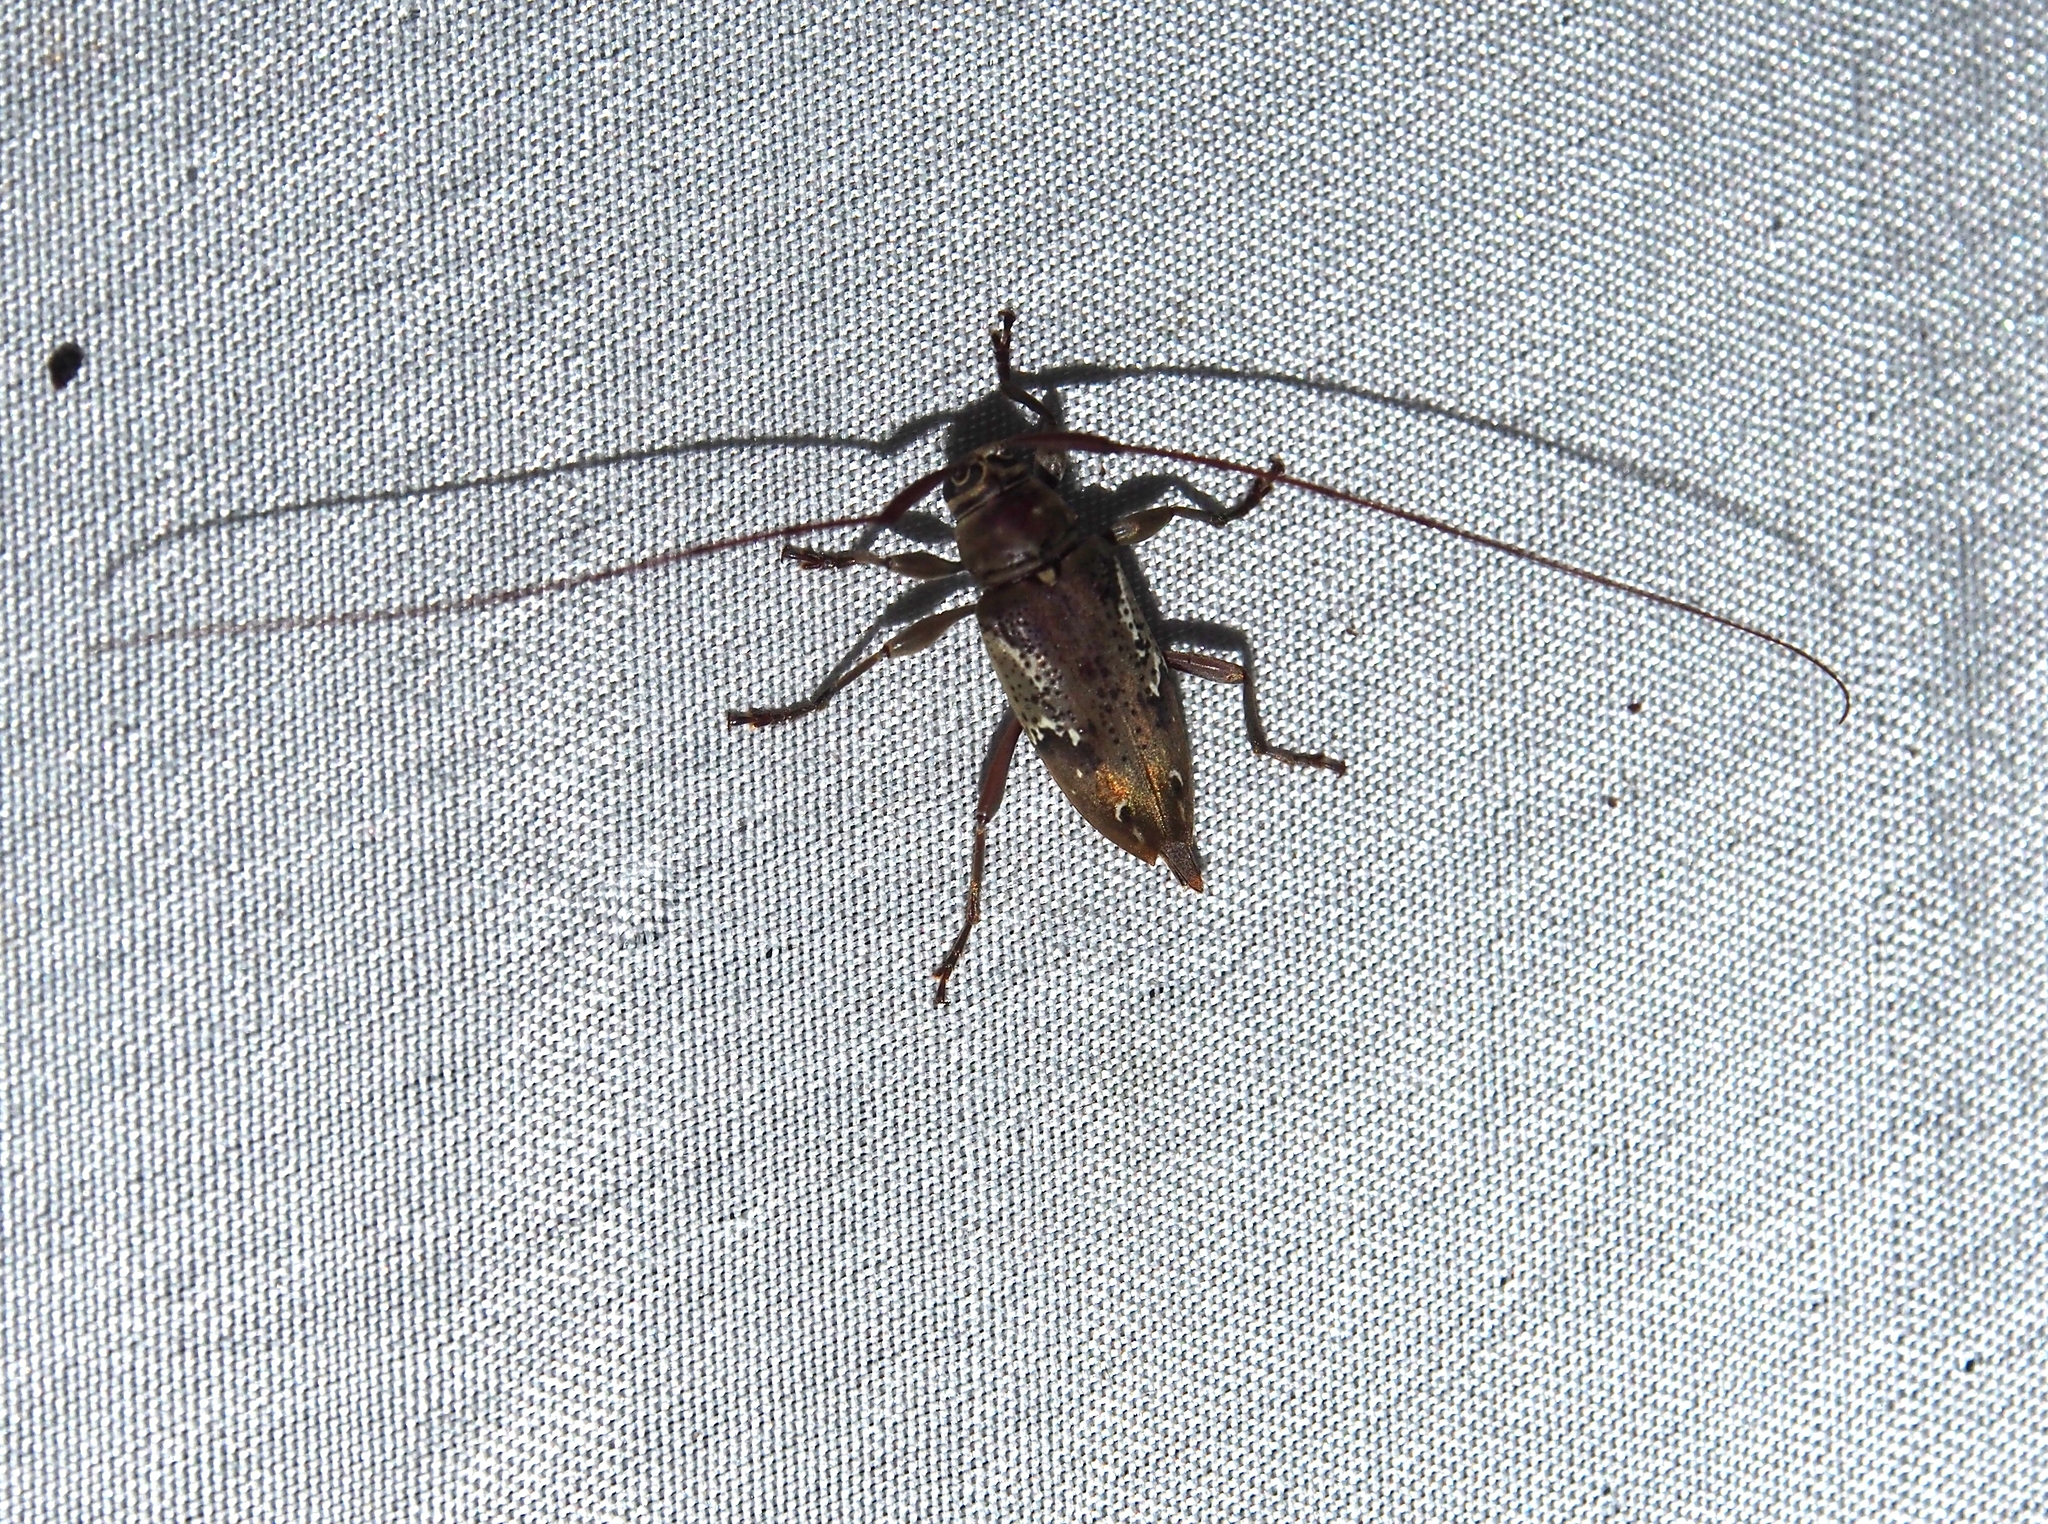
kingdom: Animalia
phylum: Arthropoda
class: Insecta
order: Coleoptera
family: Cerambycidae
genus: Nyssodrysternum
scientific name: Nyssodrysternum serpentinum
